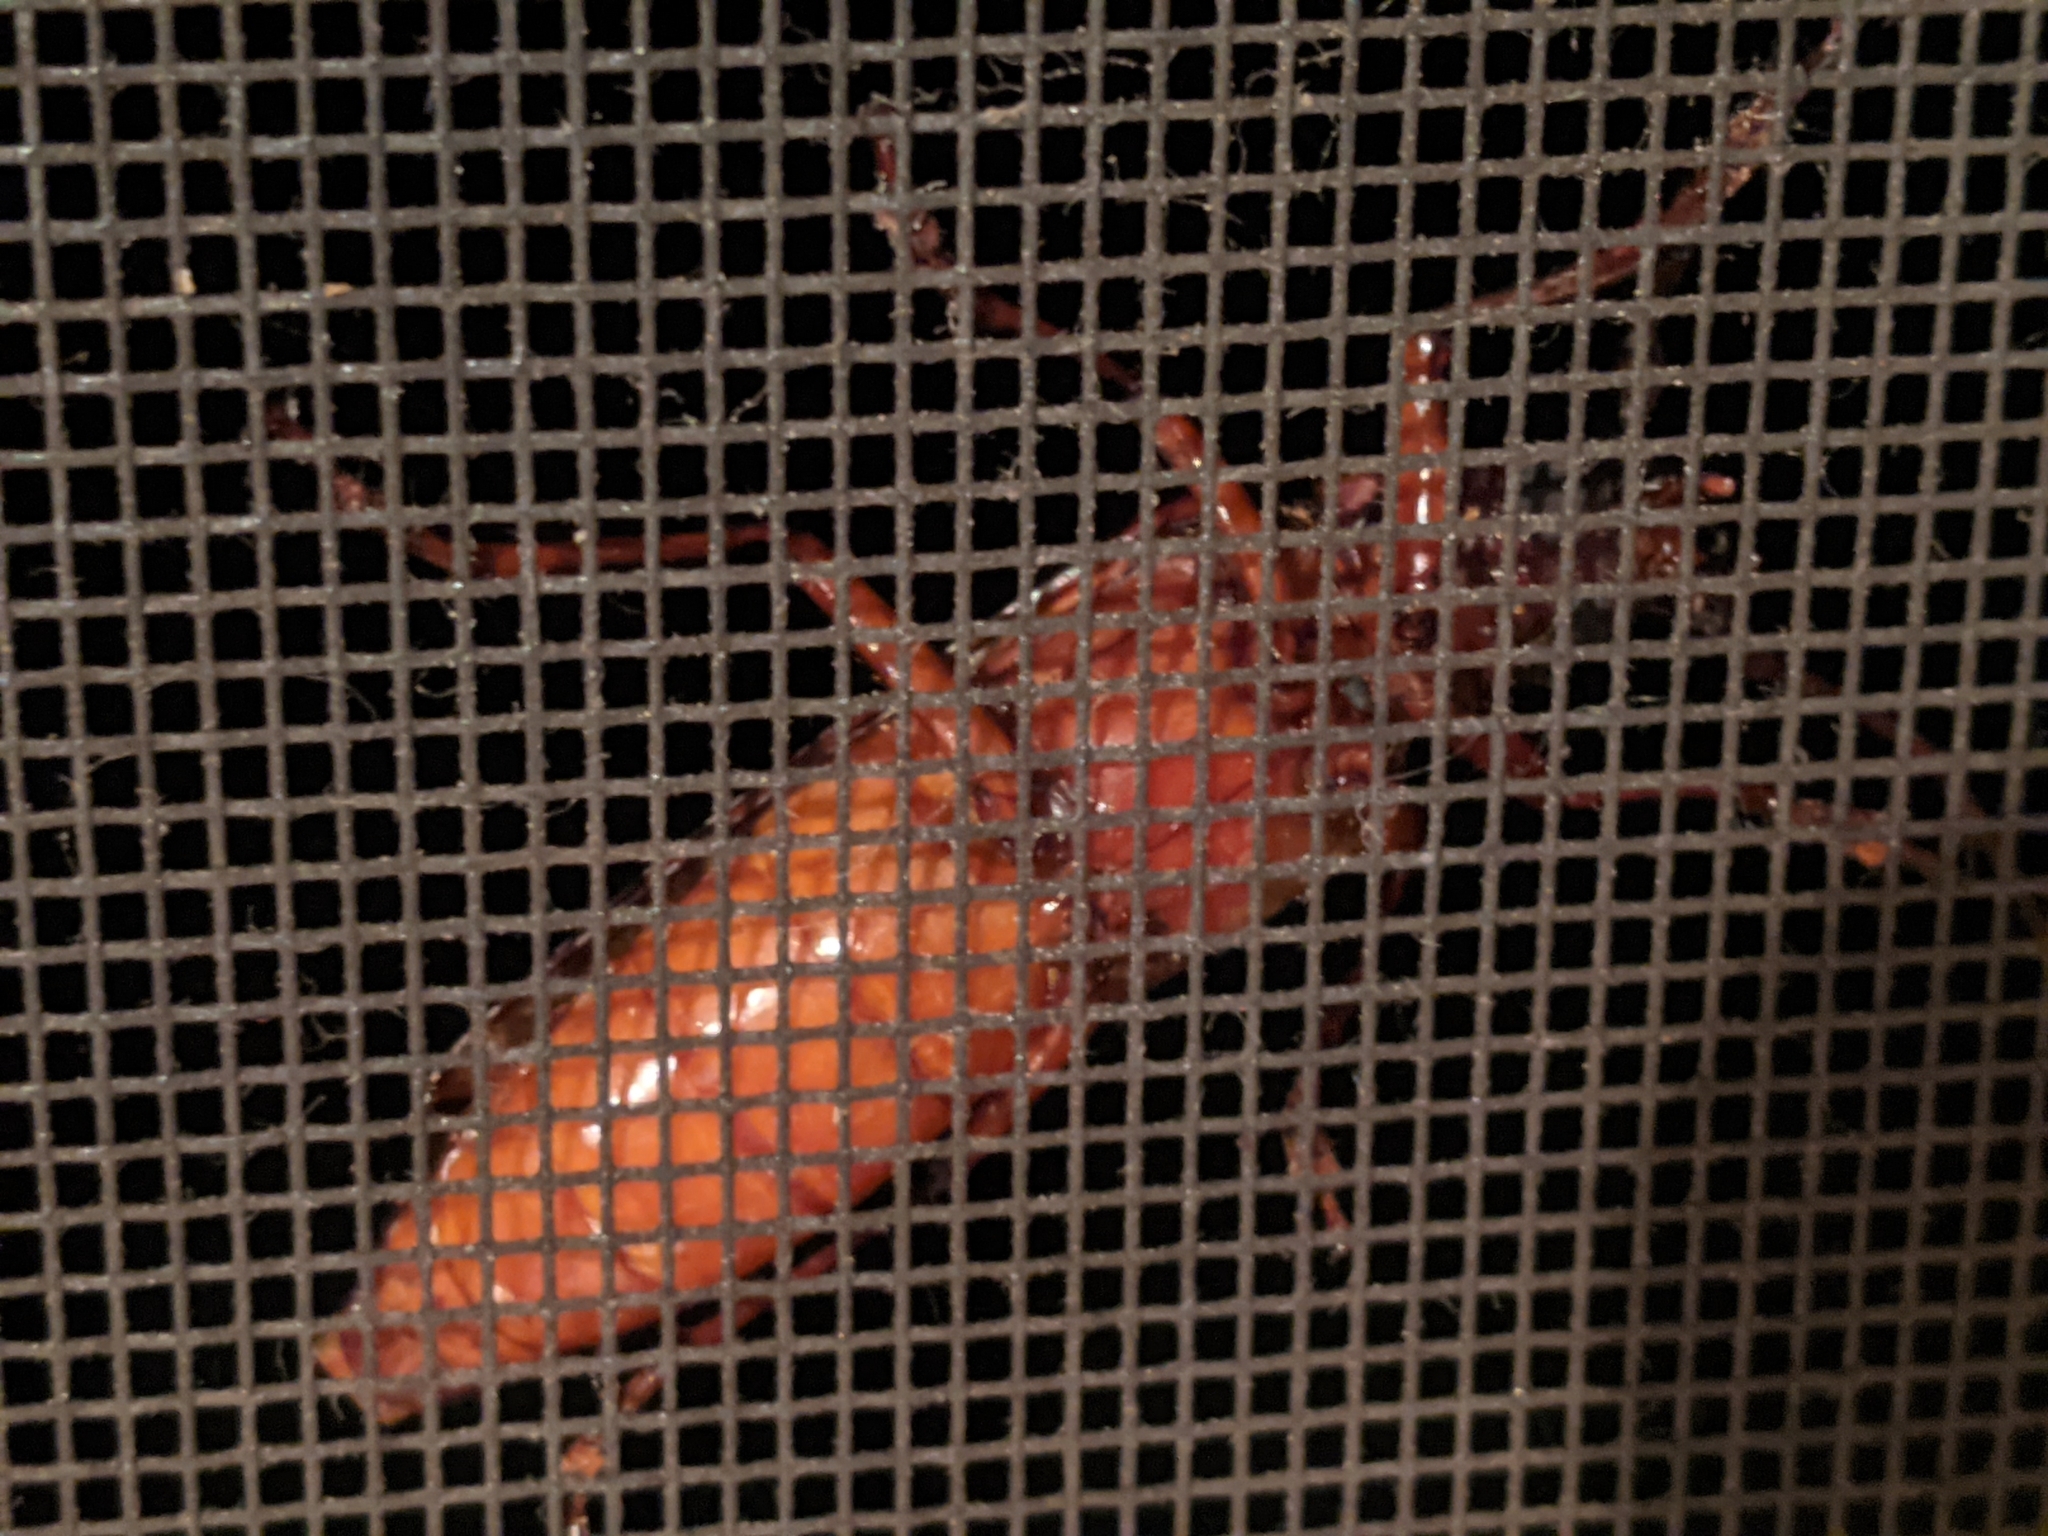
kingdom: Animalia
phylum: Arthropoda
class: Insecta
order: Coleoptera
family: Cerambycidae
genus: Orthosoma
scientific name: Orthosoma brunneum
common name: Brown prionid beetle
